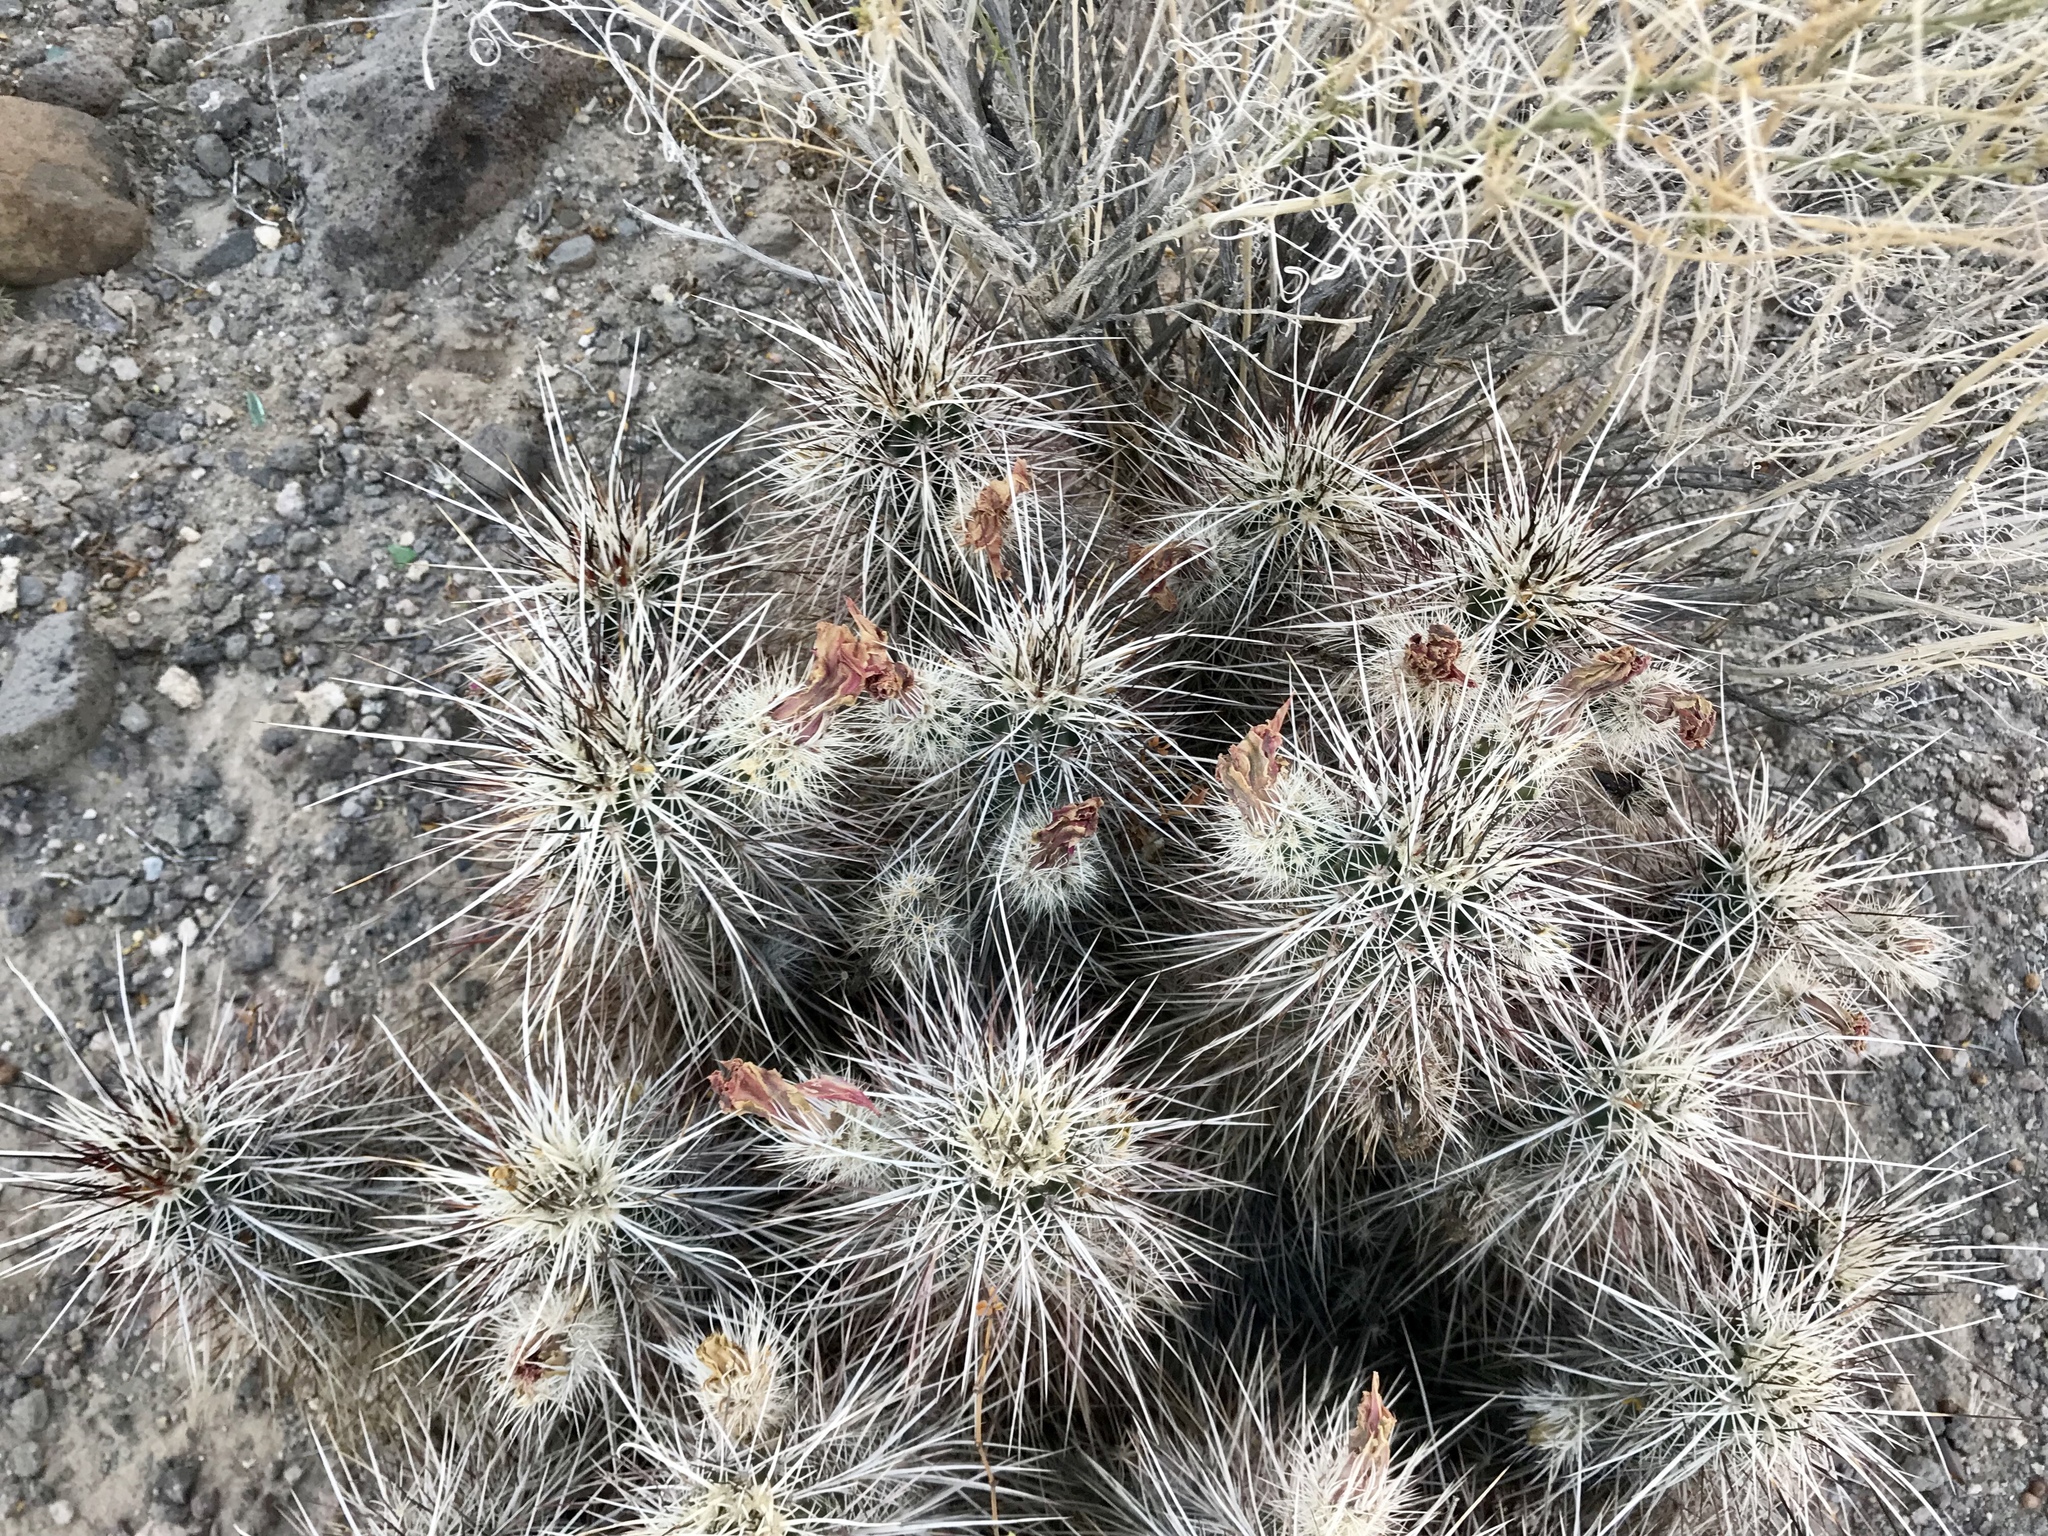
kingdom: Plantae
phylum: Tracheophyta
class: Magnoliopsida
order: Caryophyllales
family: Cactaceae
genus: Echinocereus
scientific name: Echinocereus engelmannii
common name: Engelmann's hedgehog cactus
